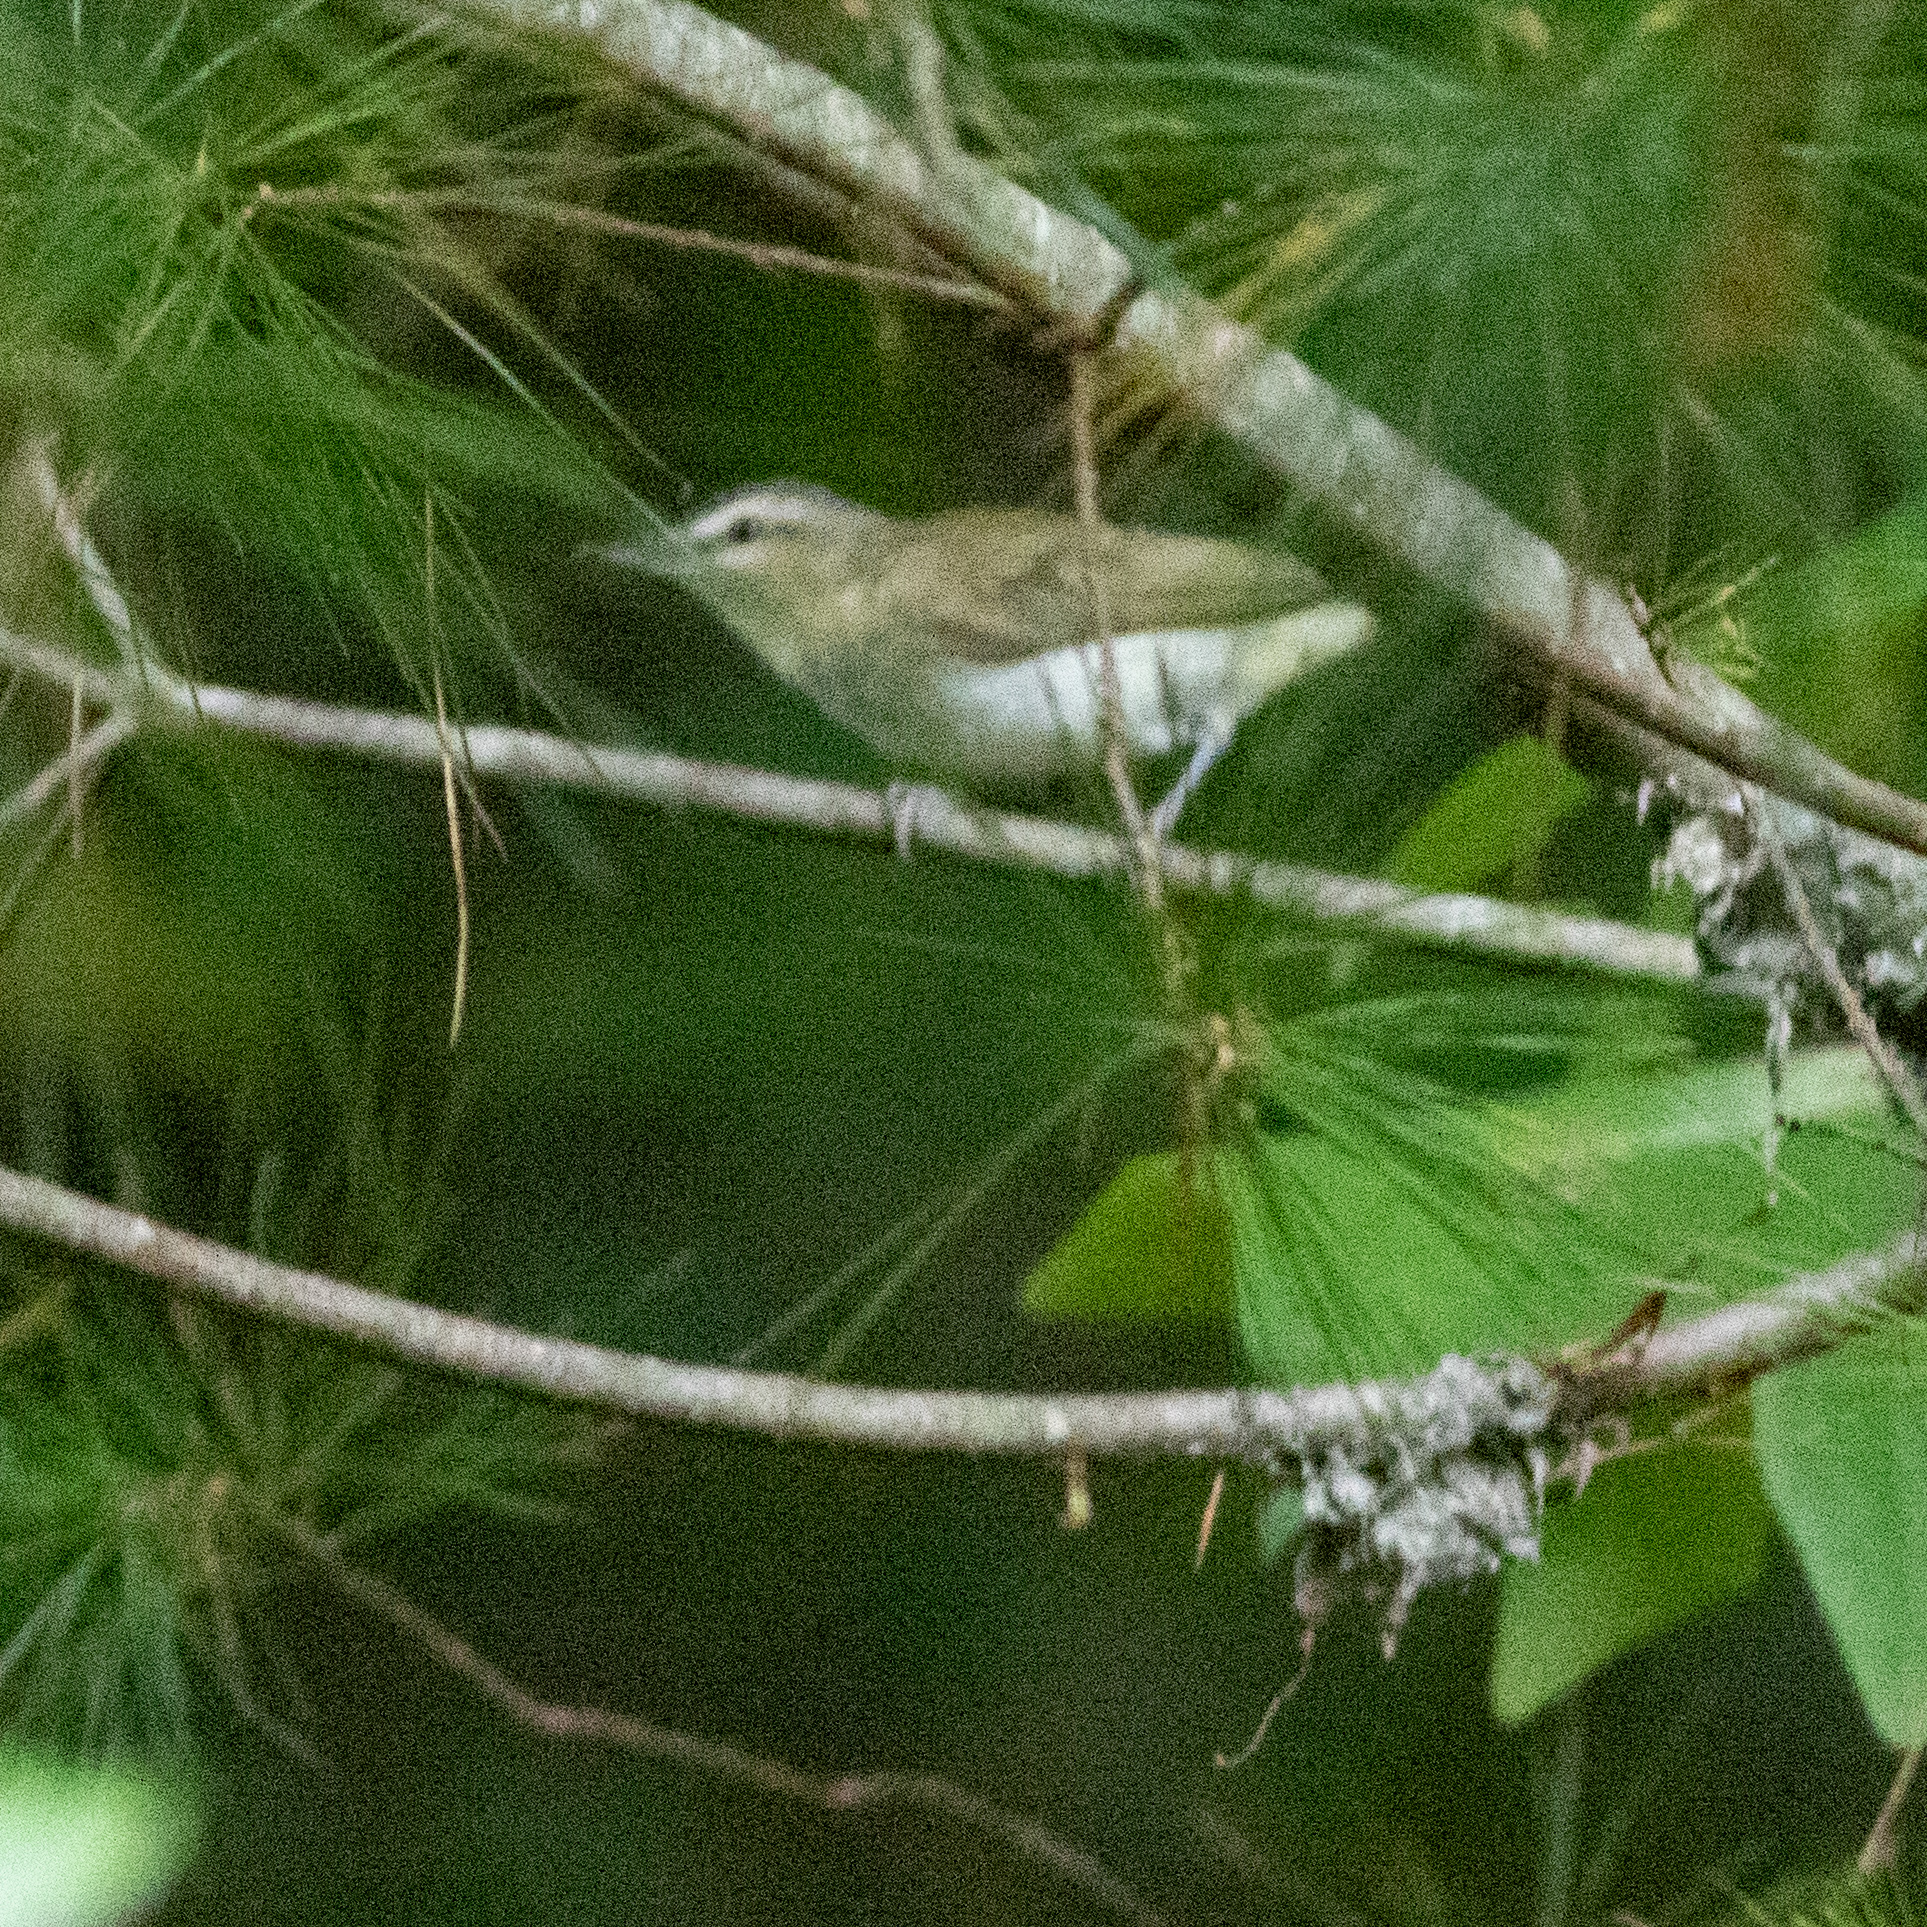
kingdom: Animalia
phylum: Chordata
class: Aves
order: Passeriformes
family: Vireonidae
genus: Vireo
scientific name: Vireo olivaceus
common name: Red-eyed vireo
